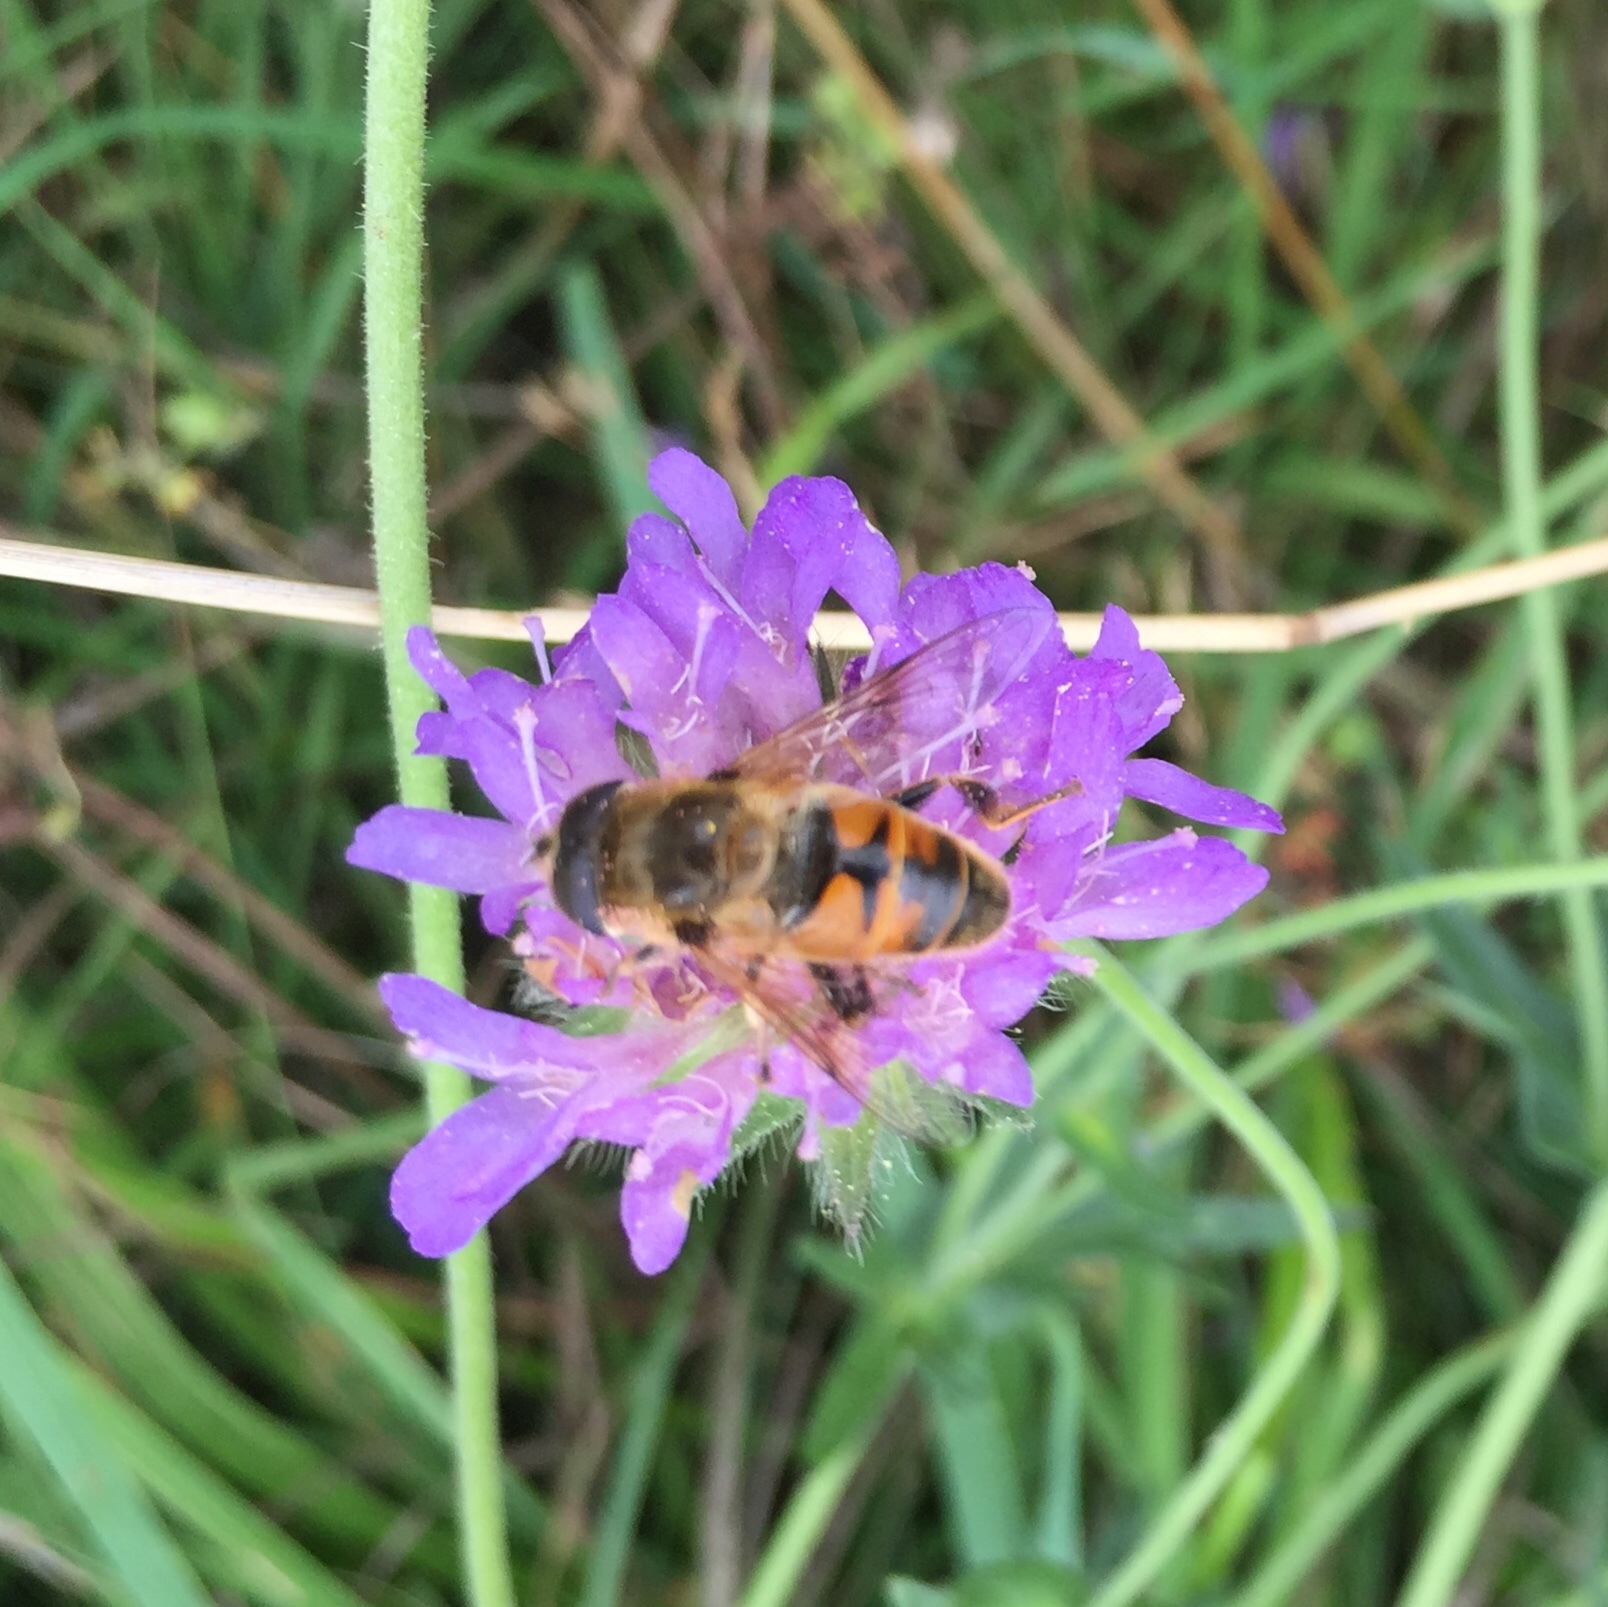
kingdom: Animalia
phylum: Arthropoda
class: Insecta
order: Diptera
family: Syrphidae
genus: Eristalis
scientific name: Eristalis tenax
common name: Drone fly
